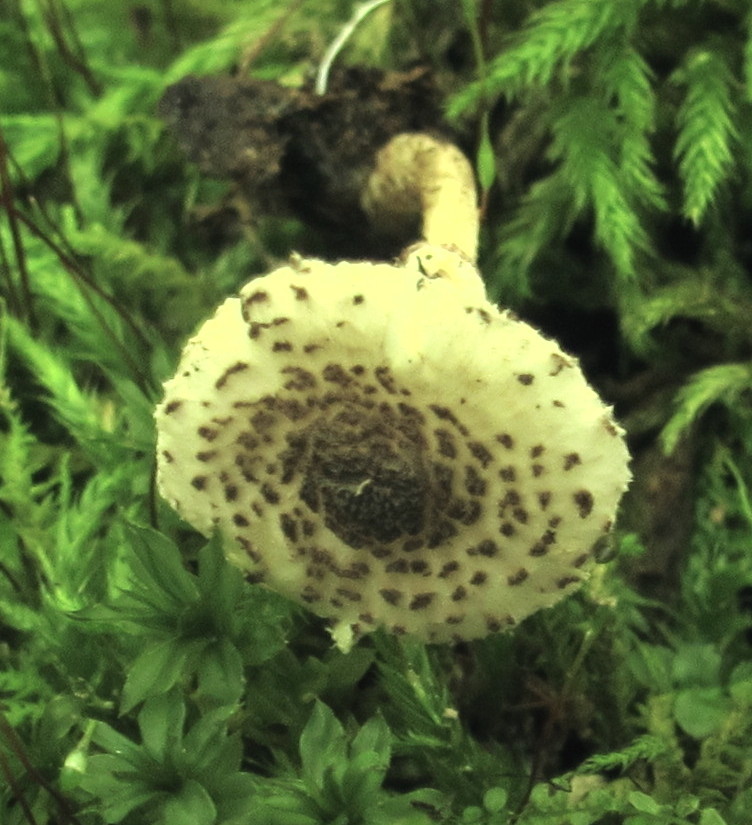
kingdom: Fungi
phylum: Basidiomycota
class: Agaricomycetes
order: Agaricales
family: Agaricaceae
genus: Lepiota
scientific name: Lepiota felina
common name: Cat dapperling
